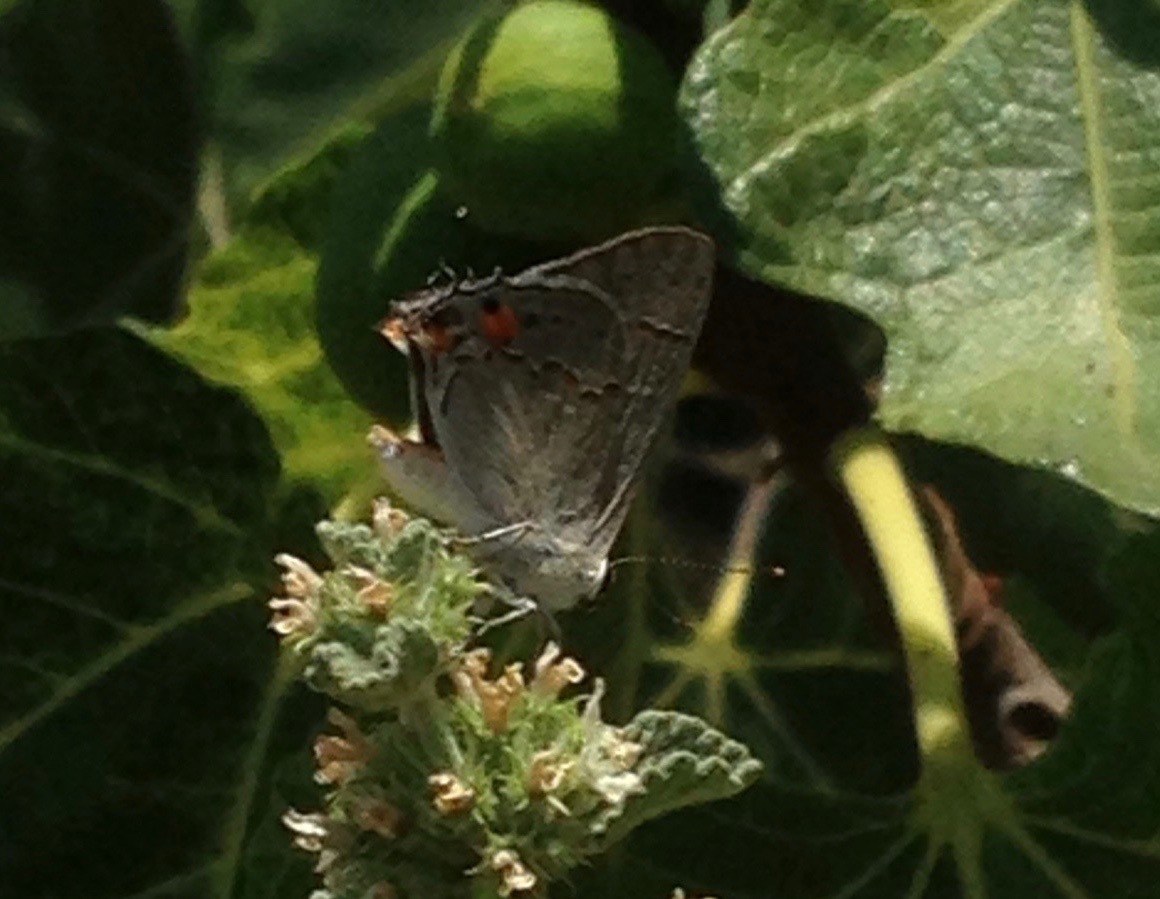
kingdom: Animalia
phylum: Arthropoda
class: Insecta
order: Lepidoptera
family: Lycaenidae
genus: Strymon
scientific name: Strymon melinus
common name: Gray hairstreak
